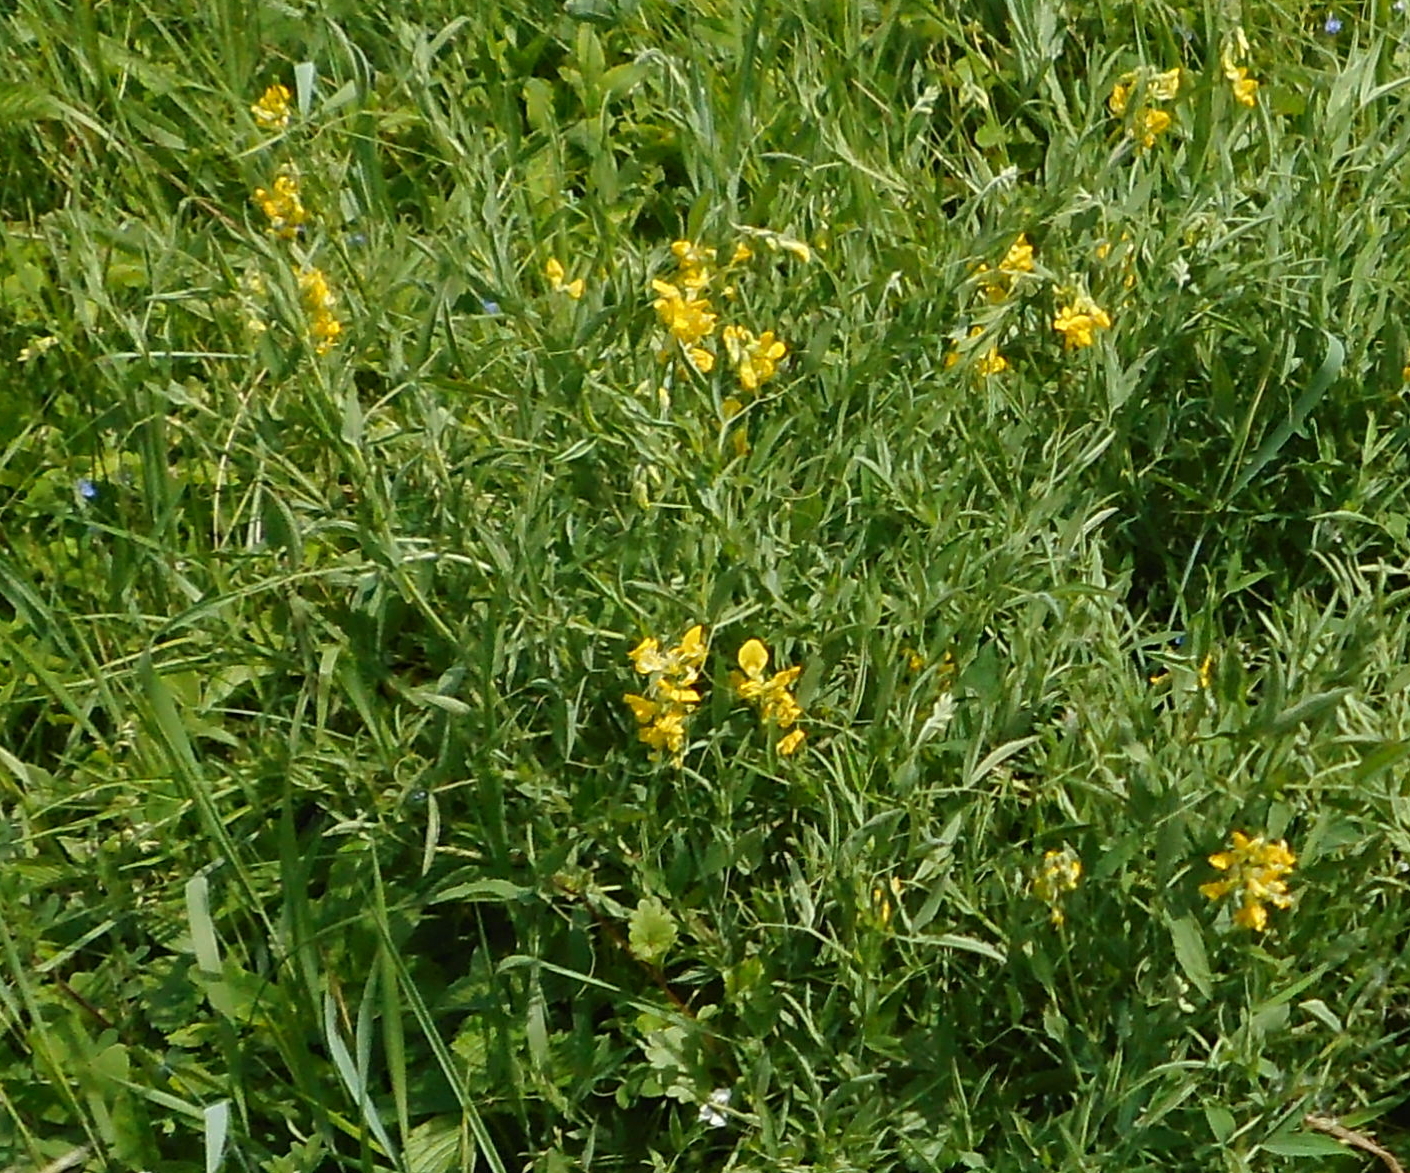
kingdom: Plantae
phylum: Tracheophyta
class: Magnoliopsida
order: Fabales
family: Fabaceae
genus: Lathyrus
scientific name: Lathyrus pratensis
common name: Meadow vetchling
